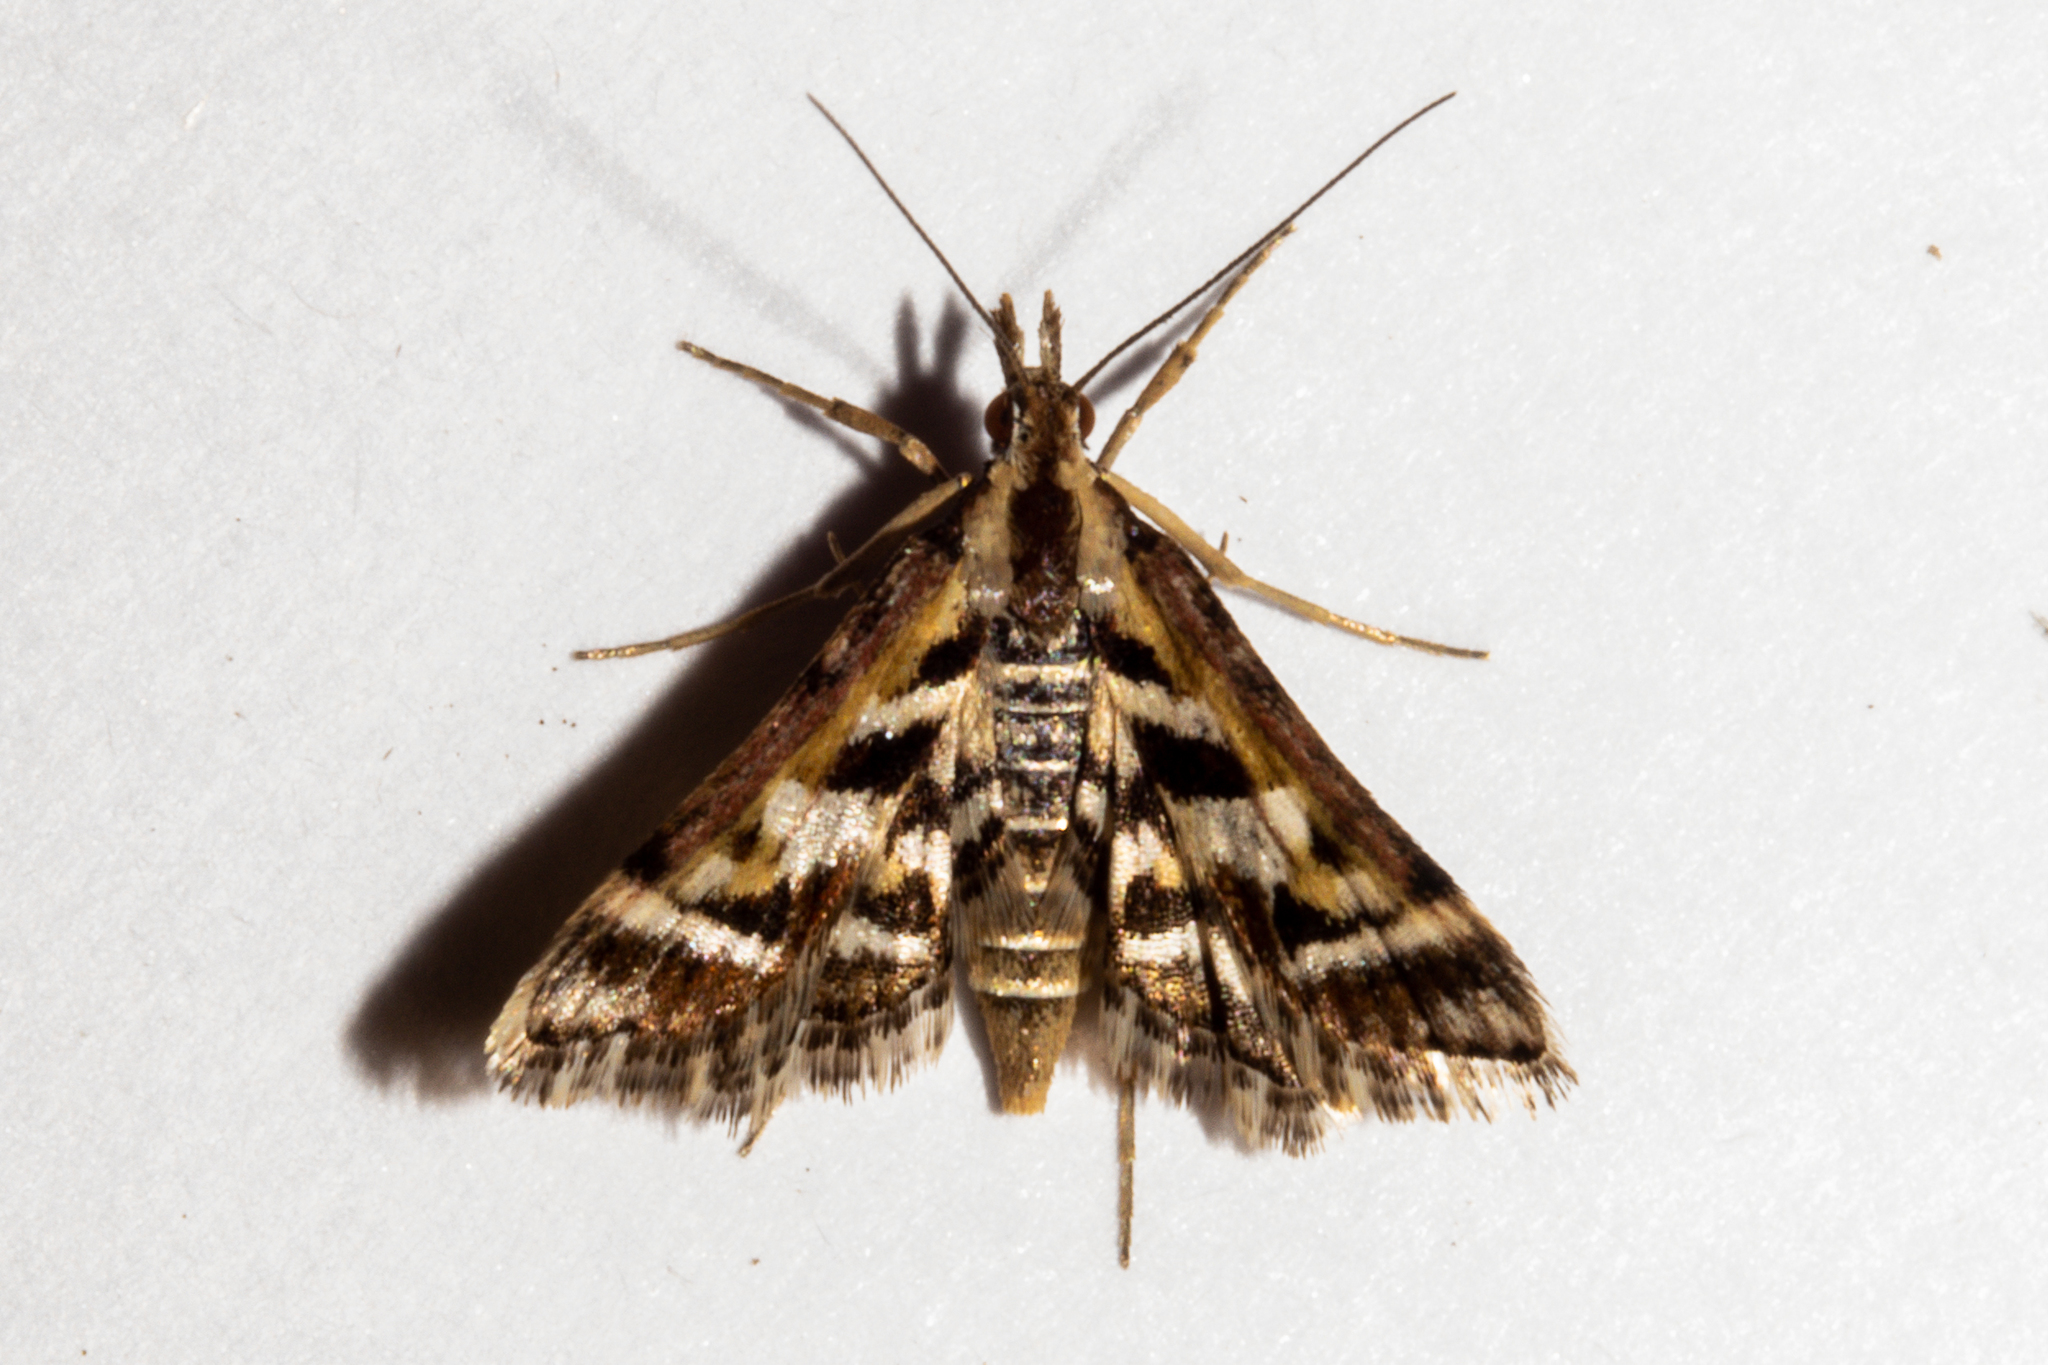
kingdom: Animalia
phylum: Arthropoda
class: Insecta
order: Lepidoptera
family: Crambidae
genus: Diasemia
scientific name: Diasemia grammalis
